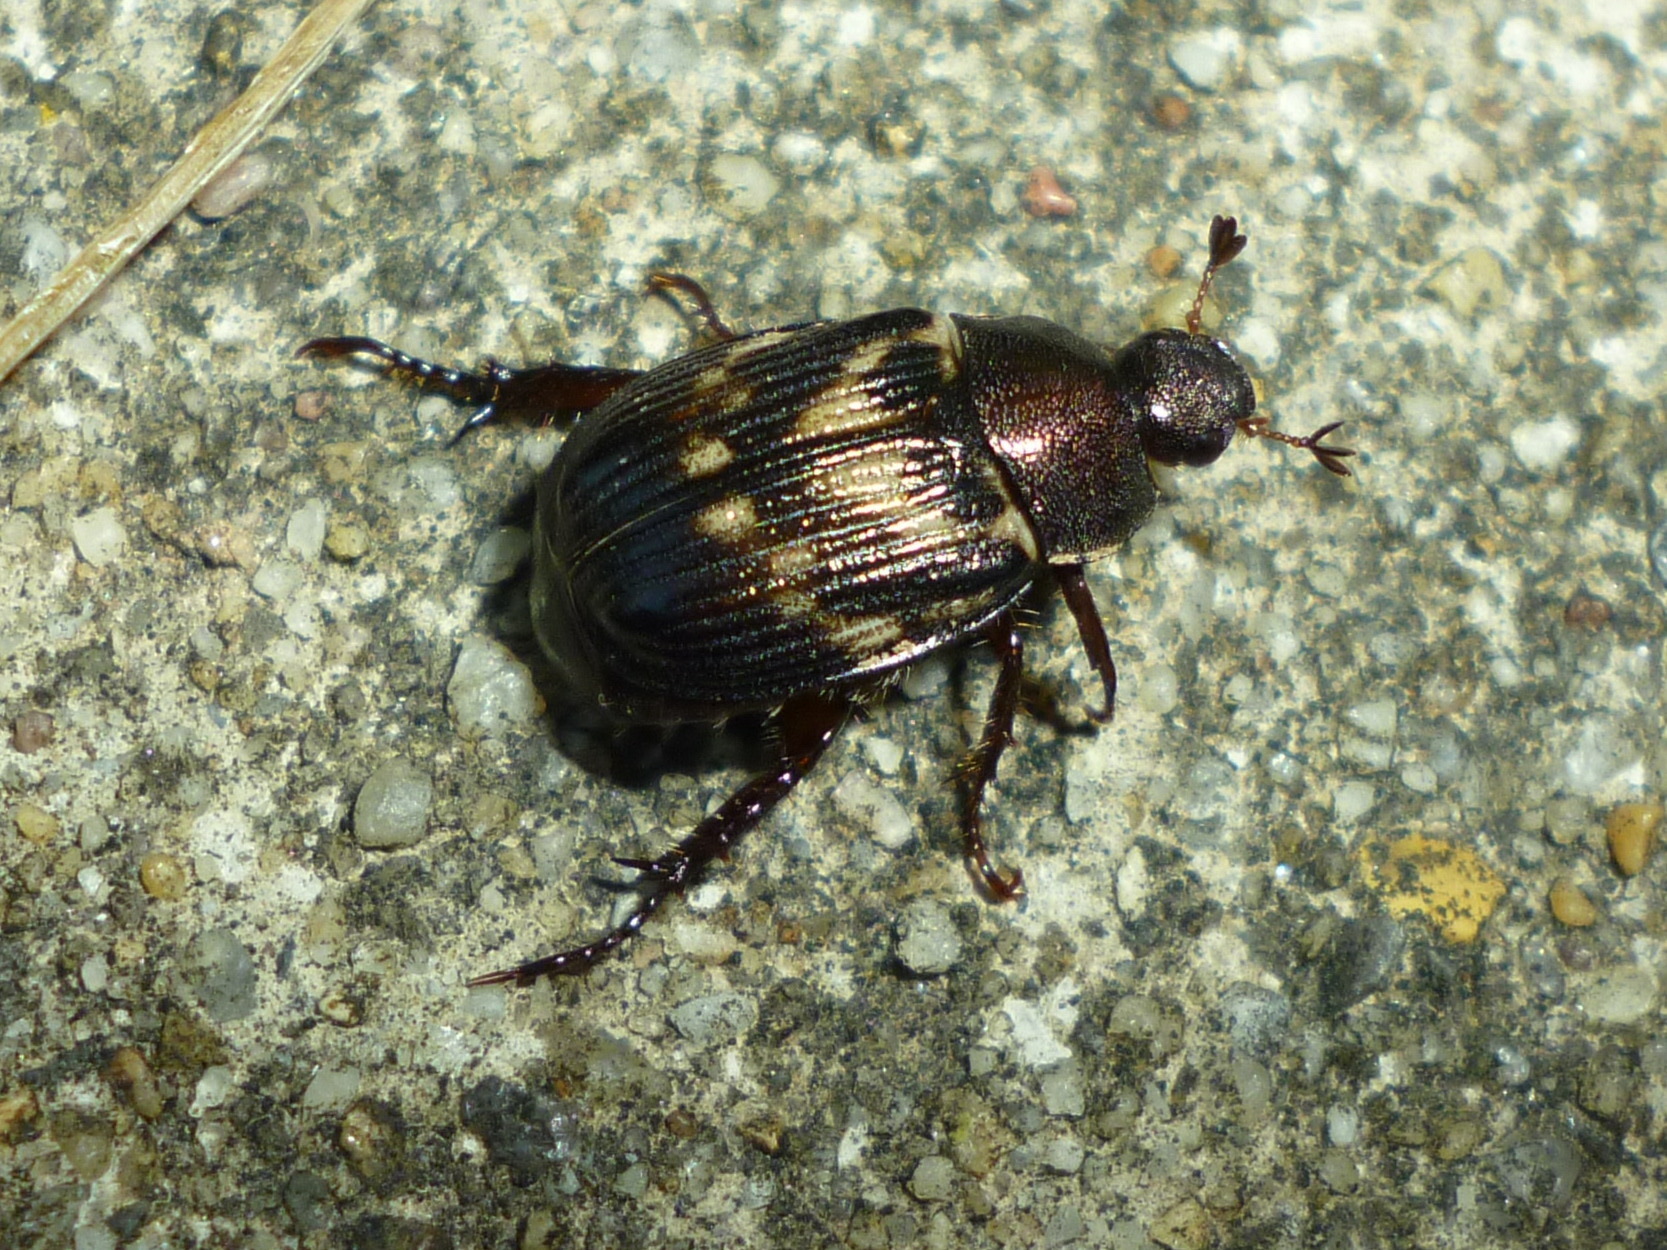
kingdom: Animalia
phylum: Arthropoda
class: Insecta
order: Coleoptera
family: Scarabaeidae
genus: Exomala
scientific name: Exomala orientalis
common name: Oriental beetle
